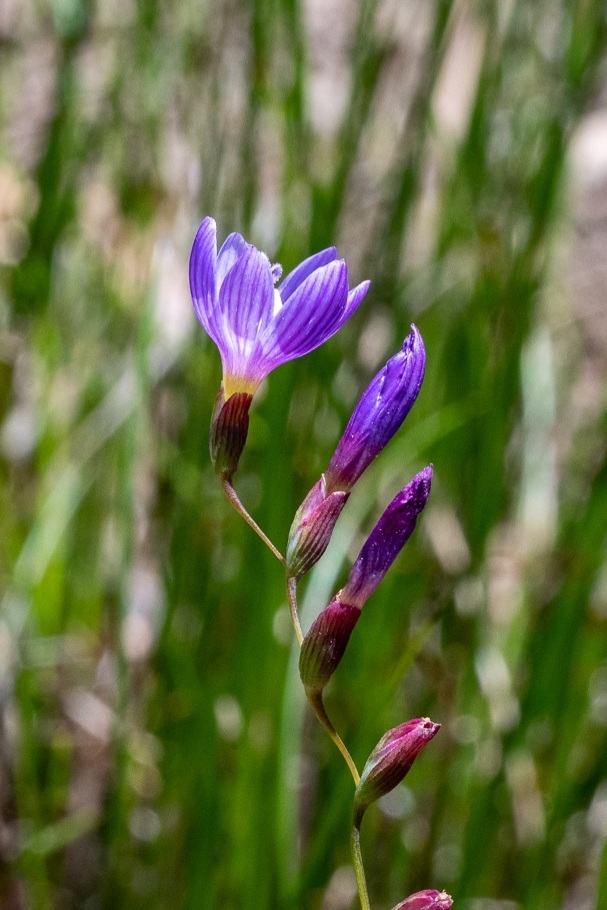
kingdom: Plantae
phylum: Tracheophyta
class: Liliopsida
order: Asparagales
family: Iridaceae
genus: Geissorhiza
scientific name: Geissorhiza aspera
